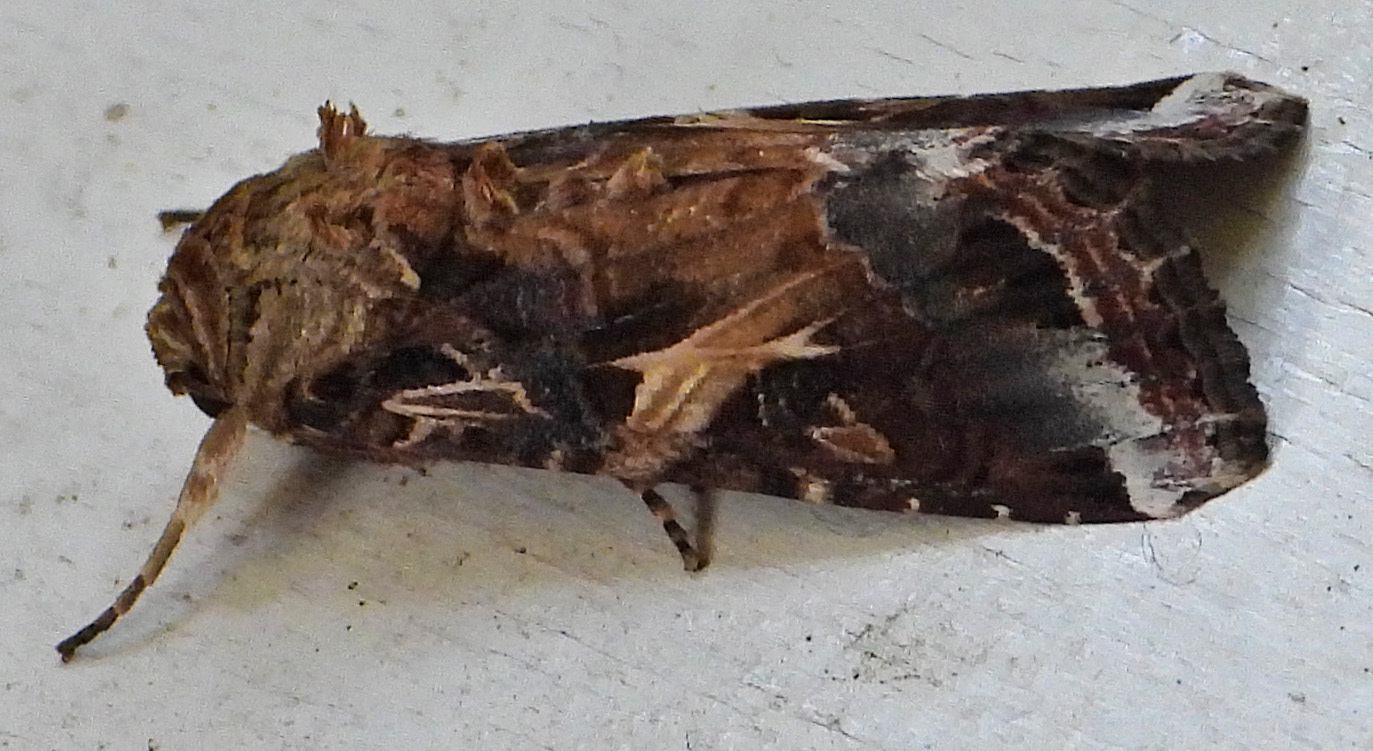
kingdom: Animalia
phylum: Arthropoda
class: Insecta
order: Lepidoptera
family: Noctuidae
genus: Spodoptera
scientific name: Spodoptera ornithogalli
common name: Yellow-striped armyworm
